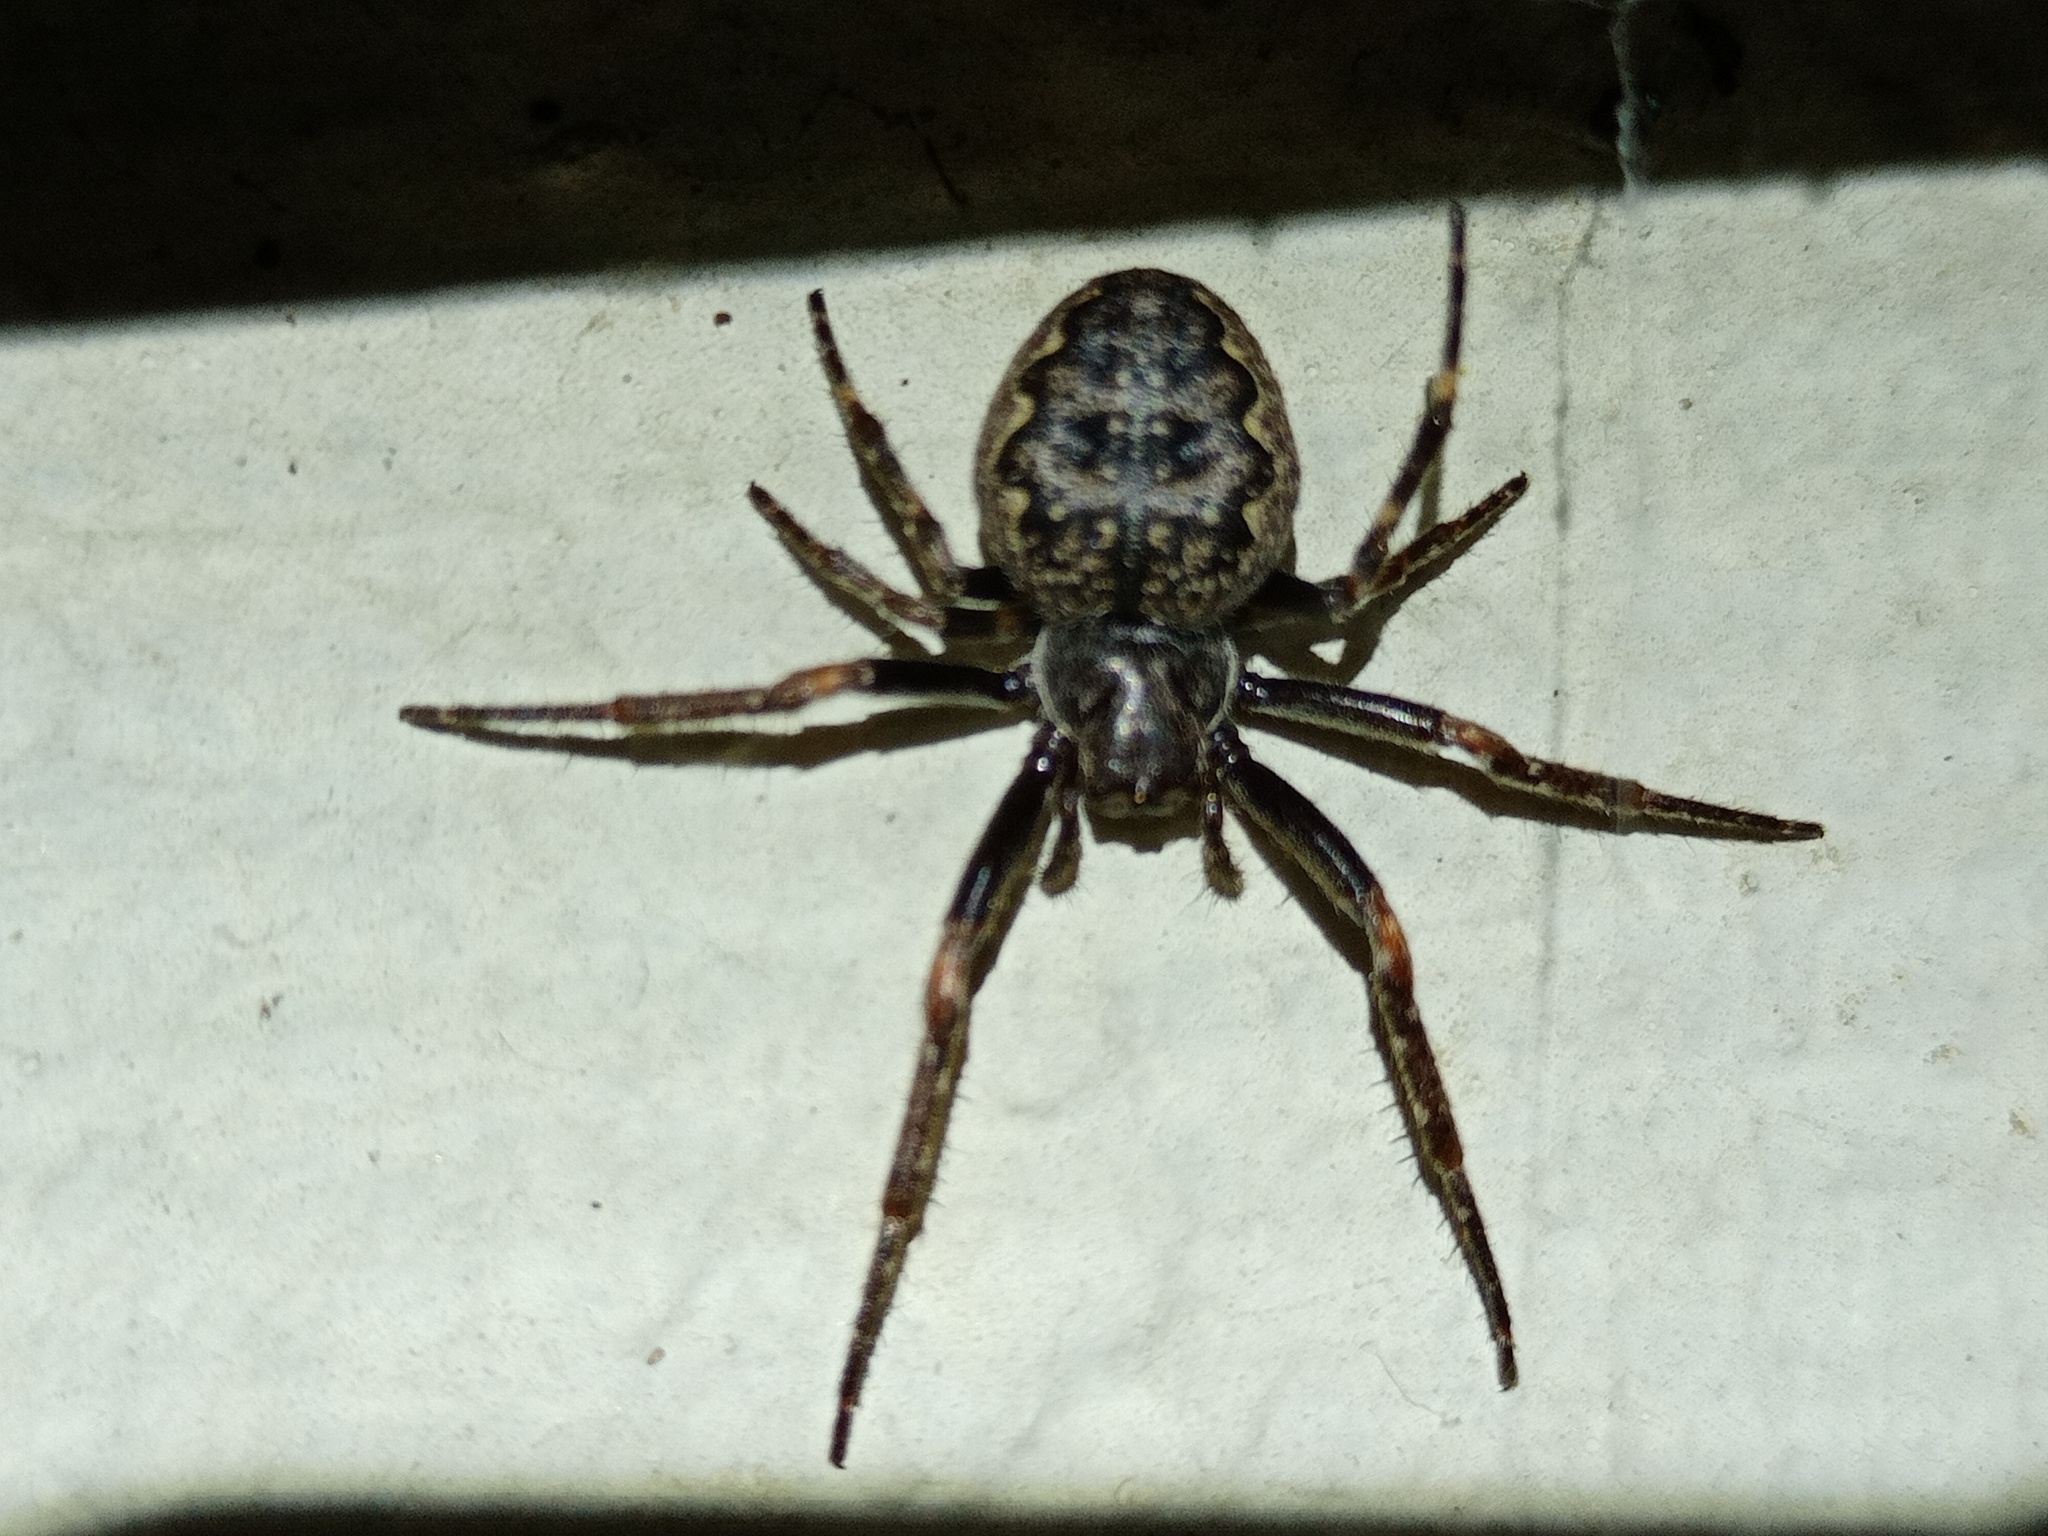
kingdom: Animalia
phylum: Arthropoda
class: Arachnida
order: Araneae
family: Araneidae
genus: Nuctenea
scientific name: Nuctenea umbratica
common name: Toad spider
